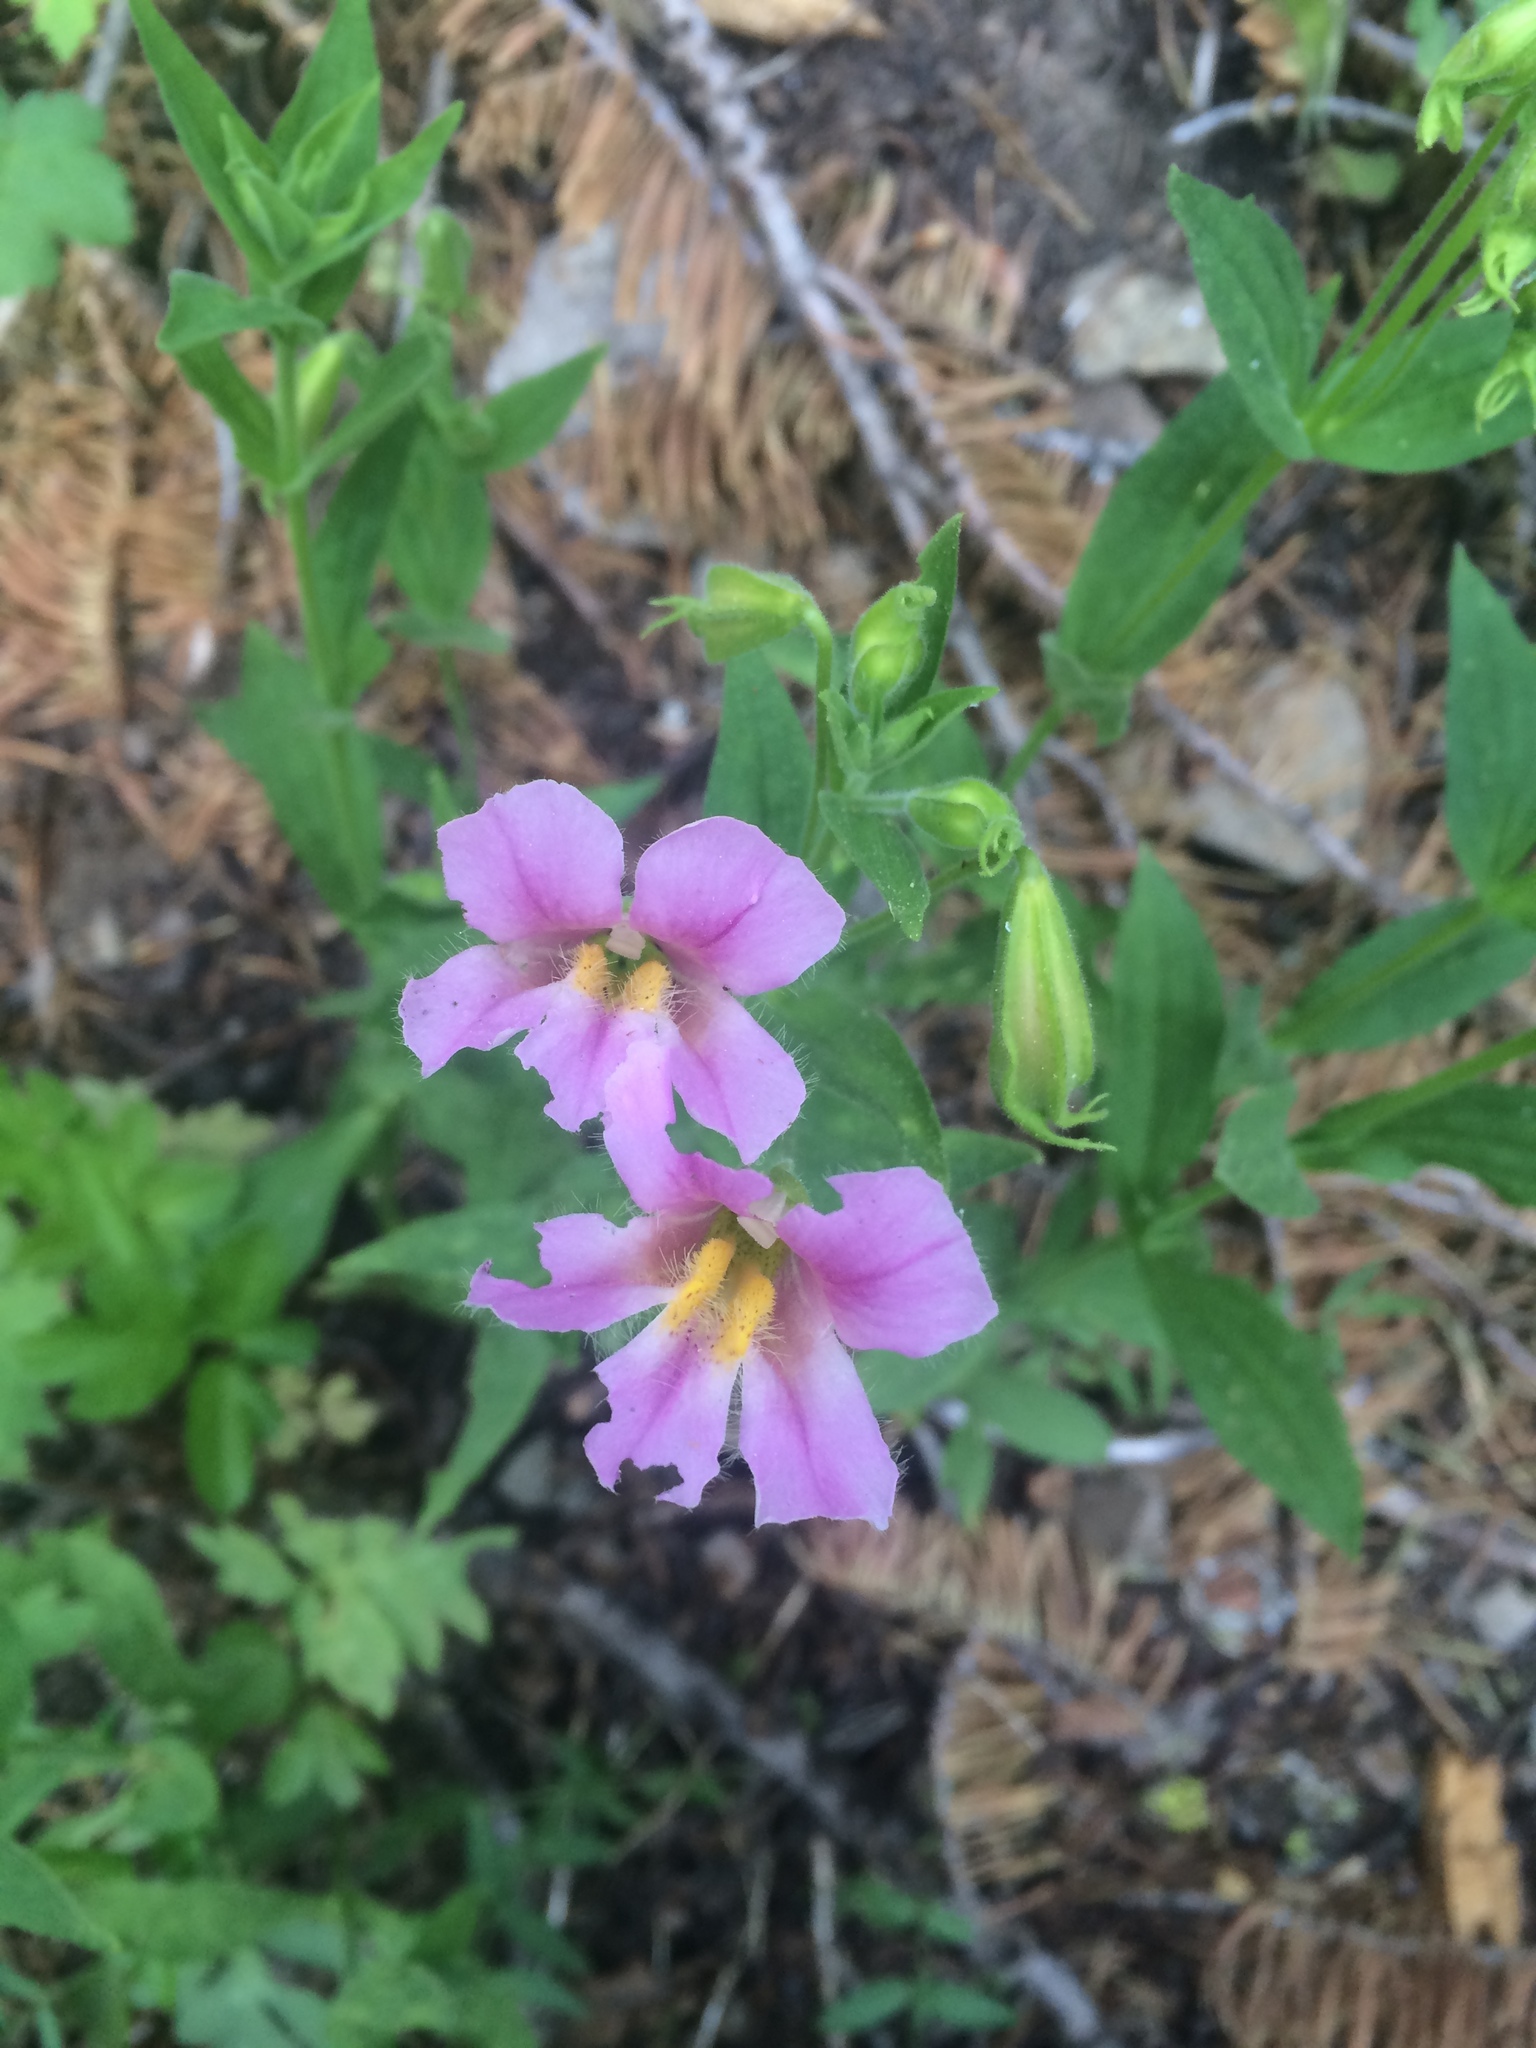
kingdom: Plantae
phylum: Tracheophyta
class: Magnoliopsida
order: Lamiales
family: Phrymaceae
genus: Erythranthe
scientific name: Erythranthe erubescens
